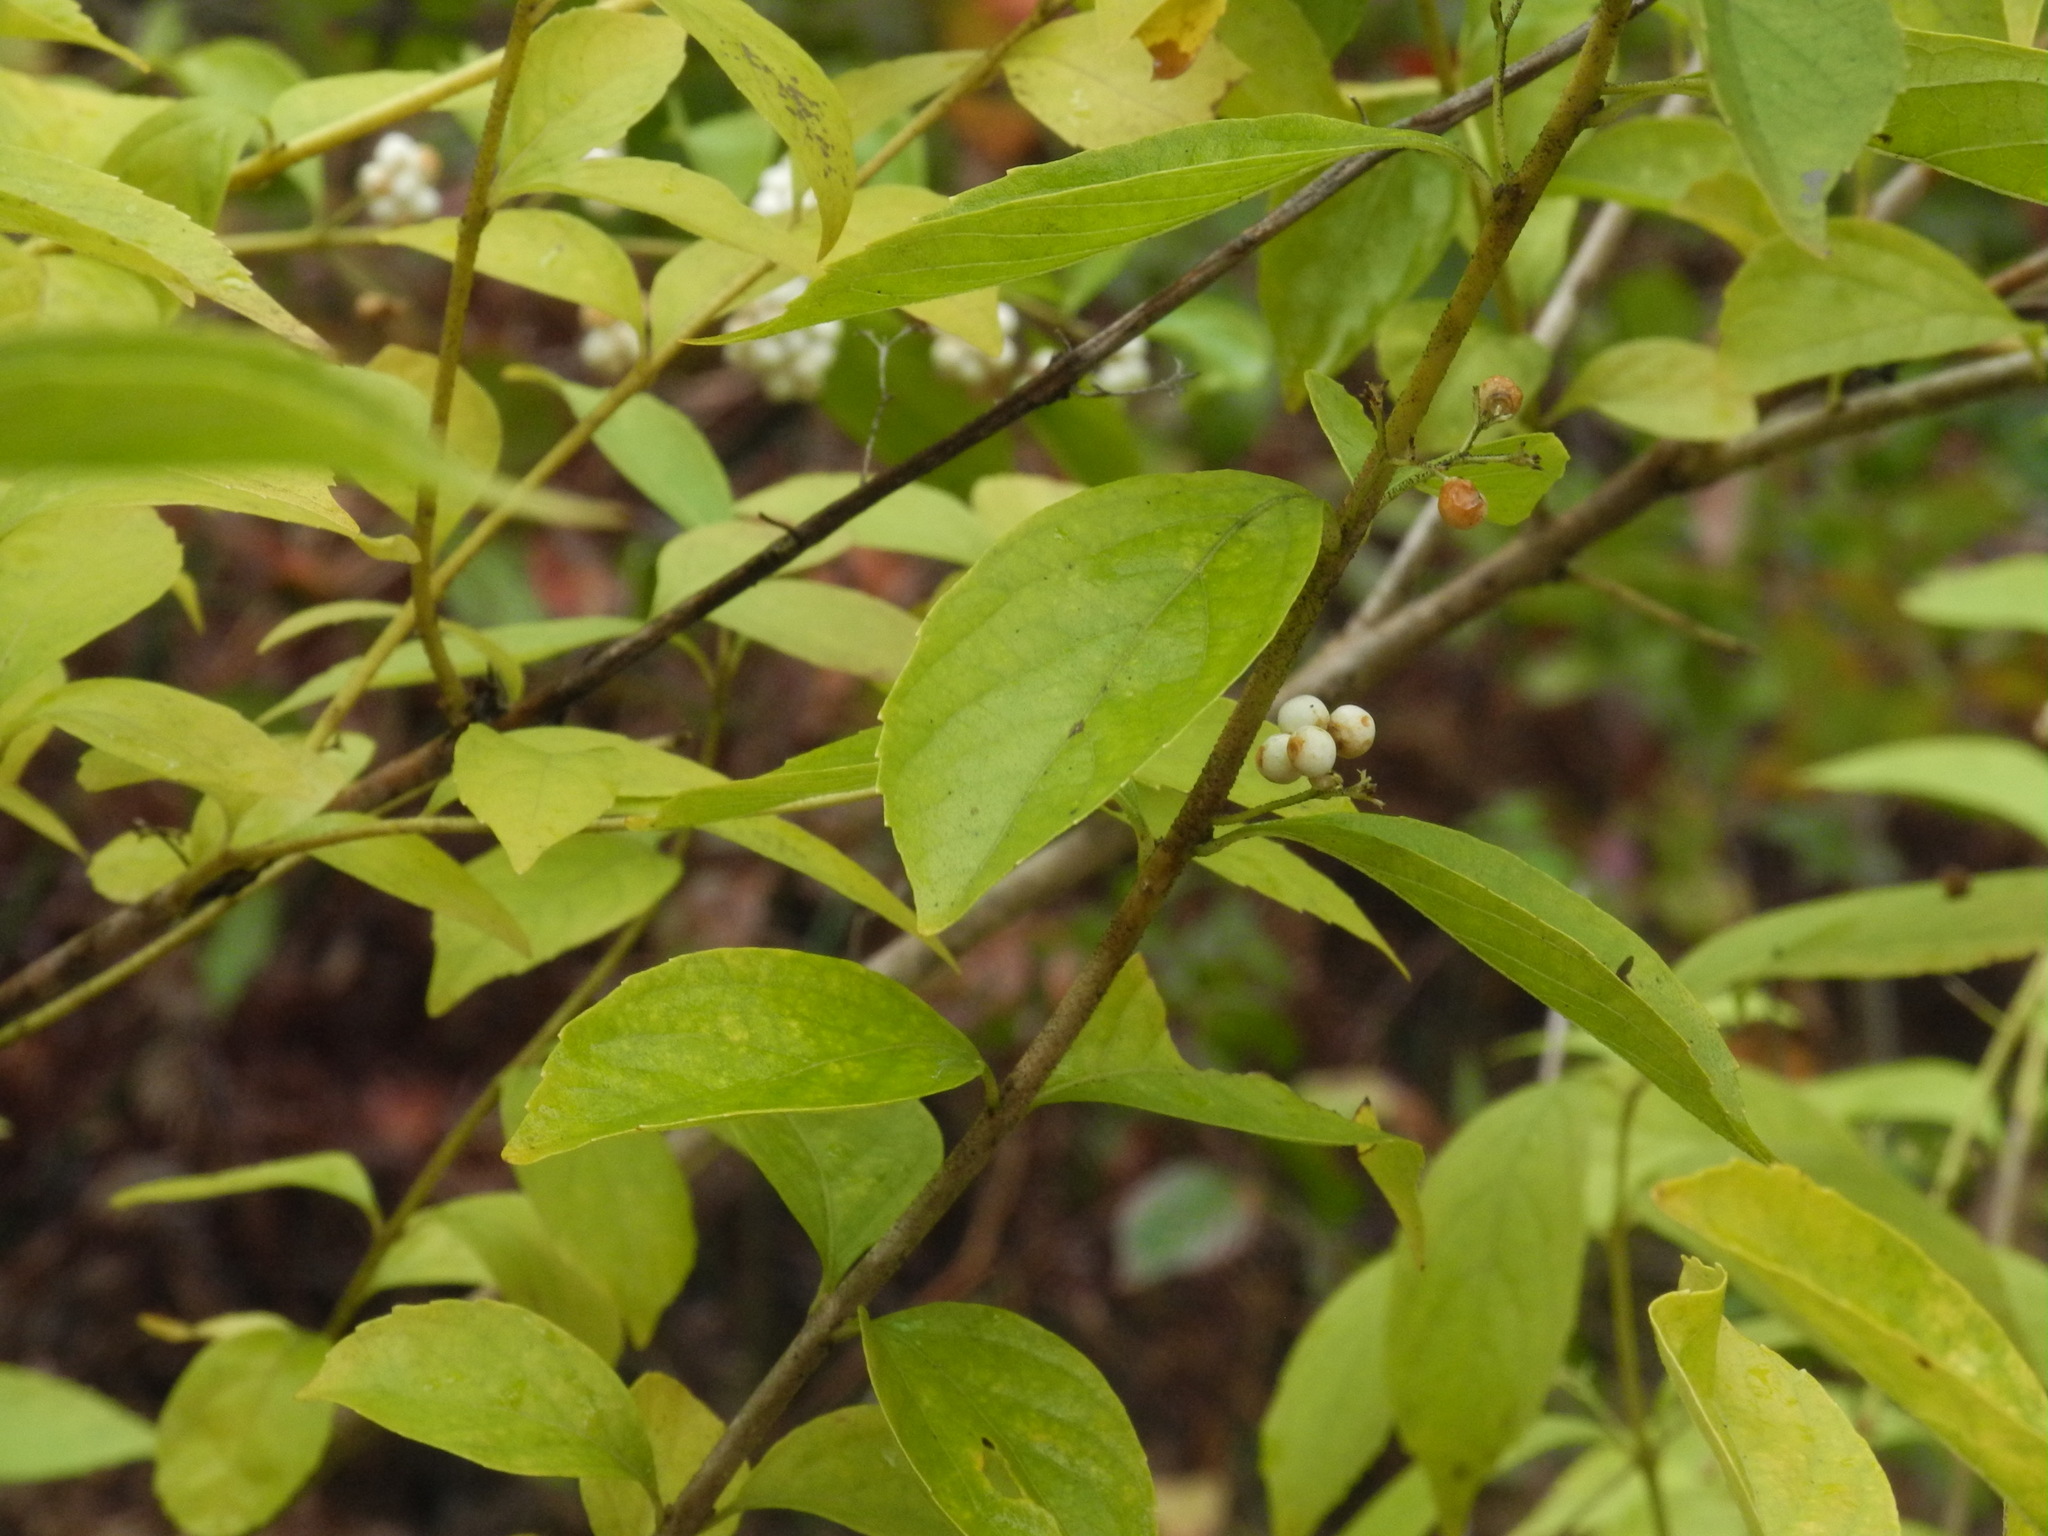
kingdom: Plantae
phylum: Tracheophyta
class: Magnoliopsida
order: Lamiales
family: Lamiaceae
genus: Callicarpa
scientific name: Callicarpa americana
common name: American beautyberry
